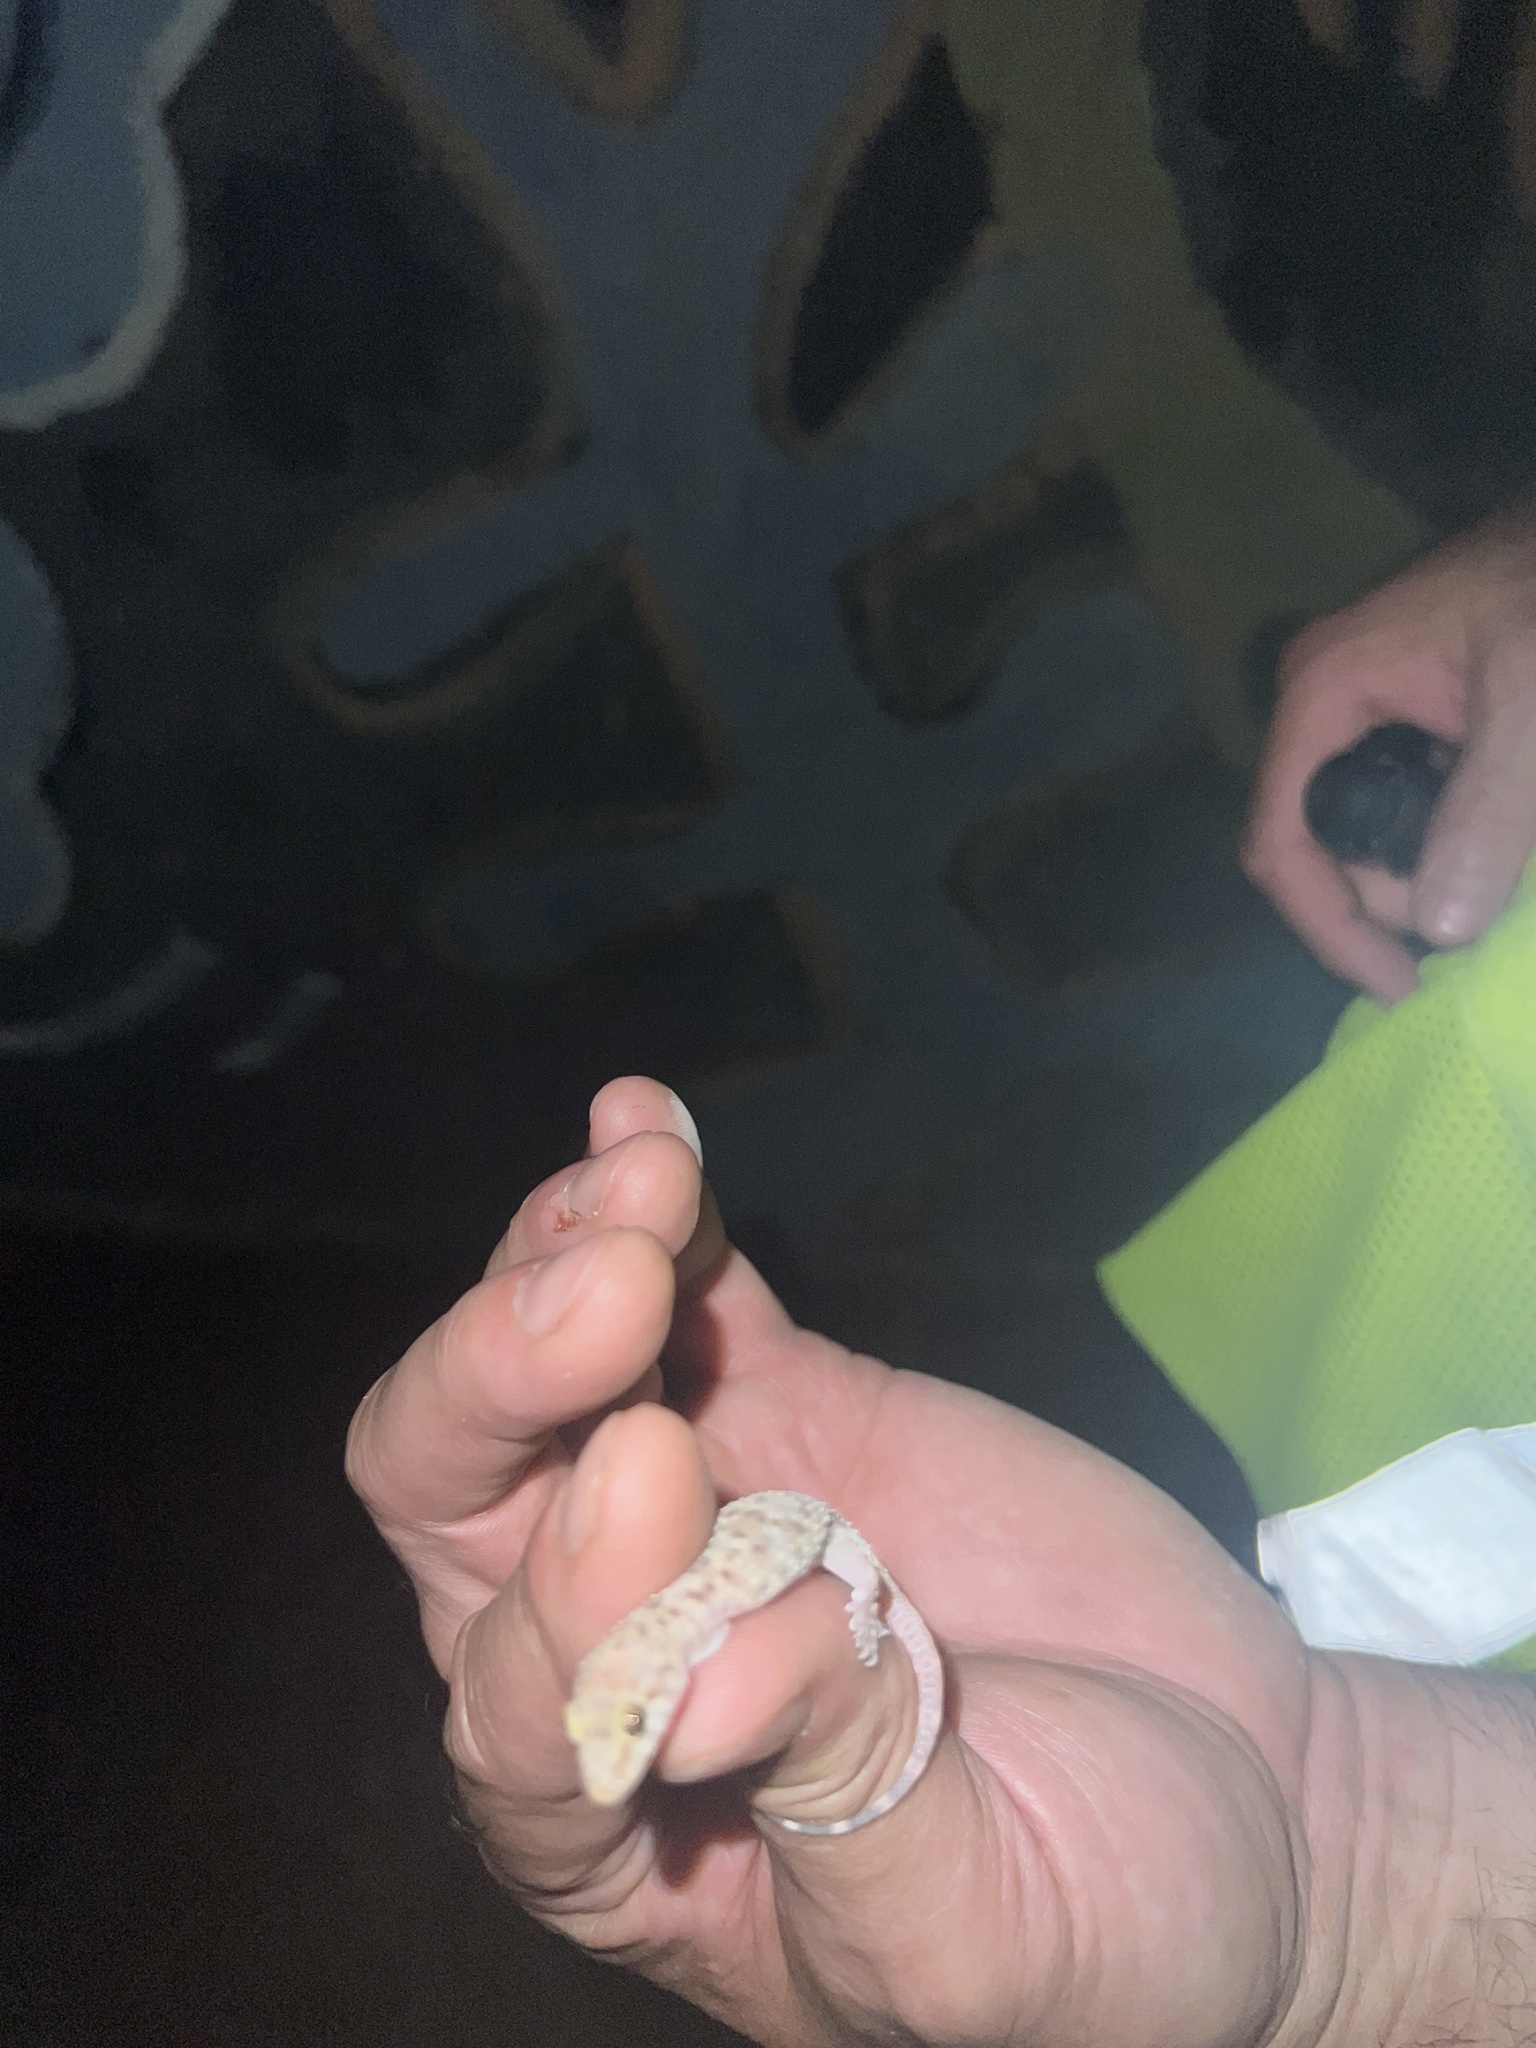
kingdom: Animalia
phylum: Chordata
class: Squamata
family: Gekkonidae
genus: Hemidactylus
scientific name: Hemidactylus turcicus
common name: Turkish gecko
